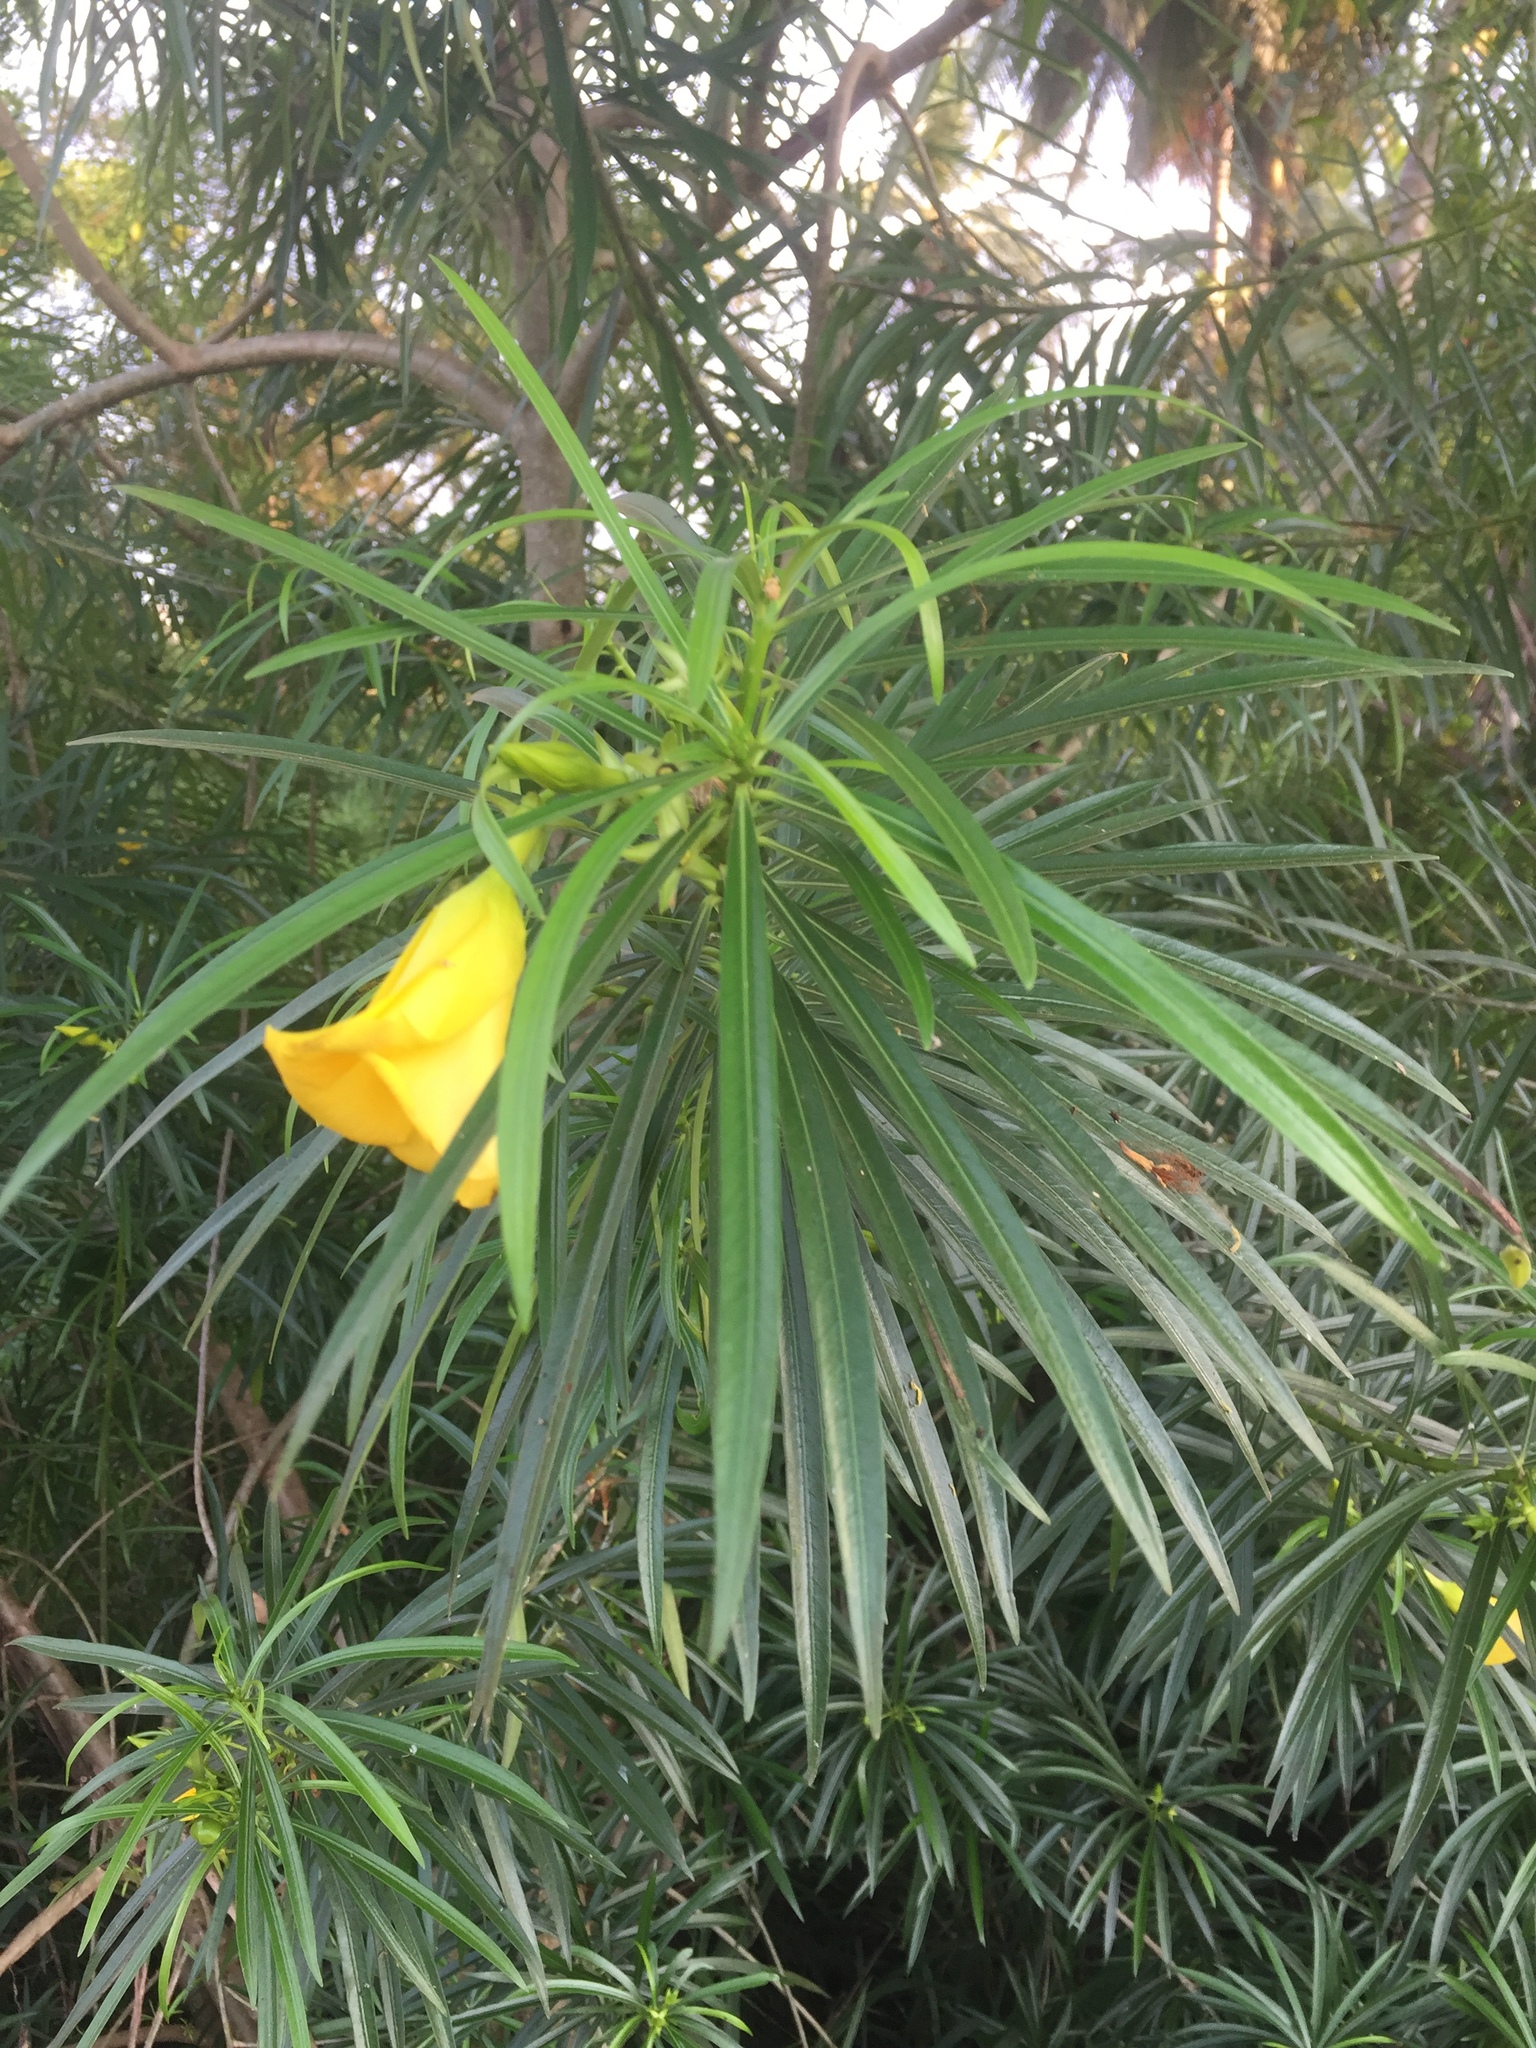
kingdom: Plantae
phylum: Tracheophyta
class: Magnoliopsida
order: Gentianales
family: Apocynaceae
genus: Cascabela
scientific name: Cascabela thevetia
